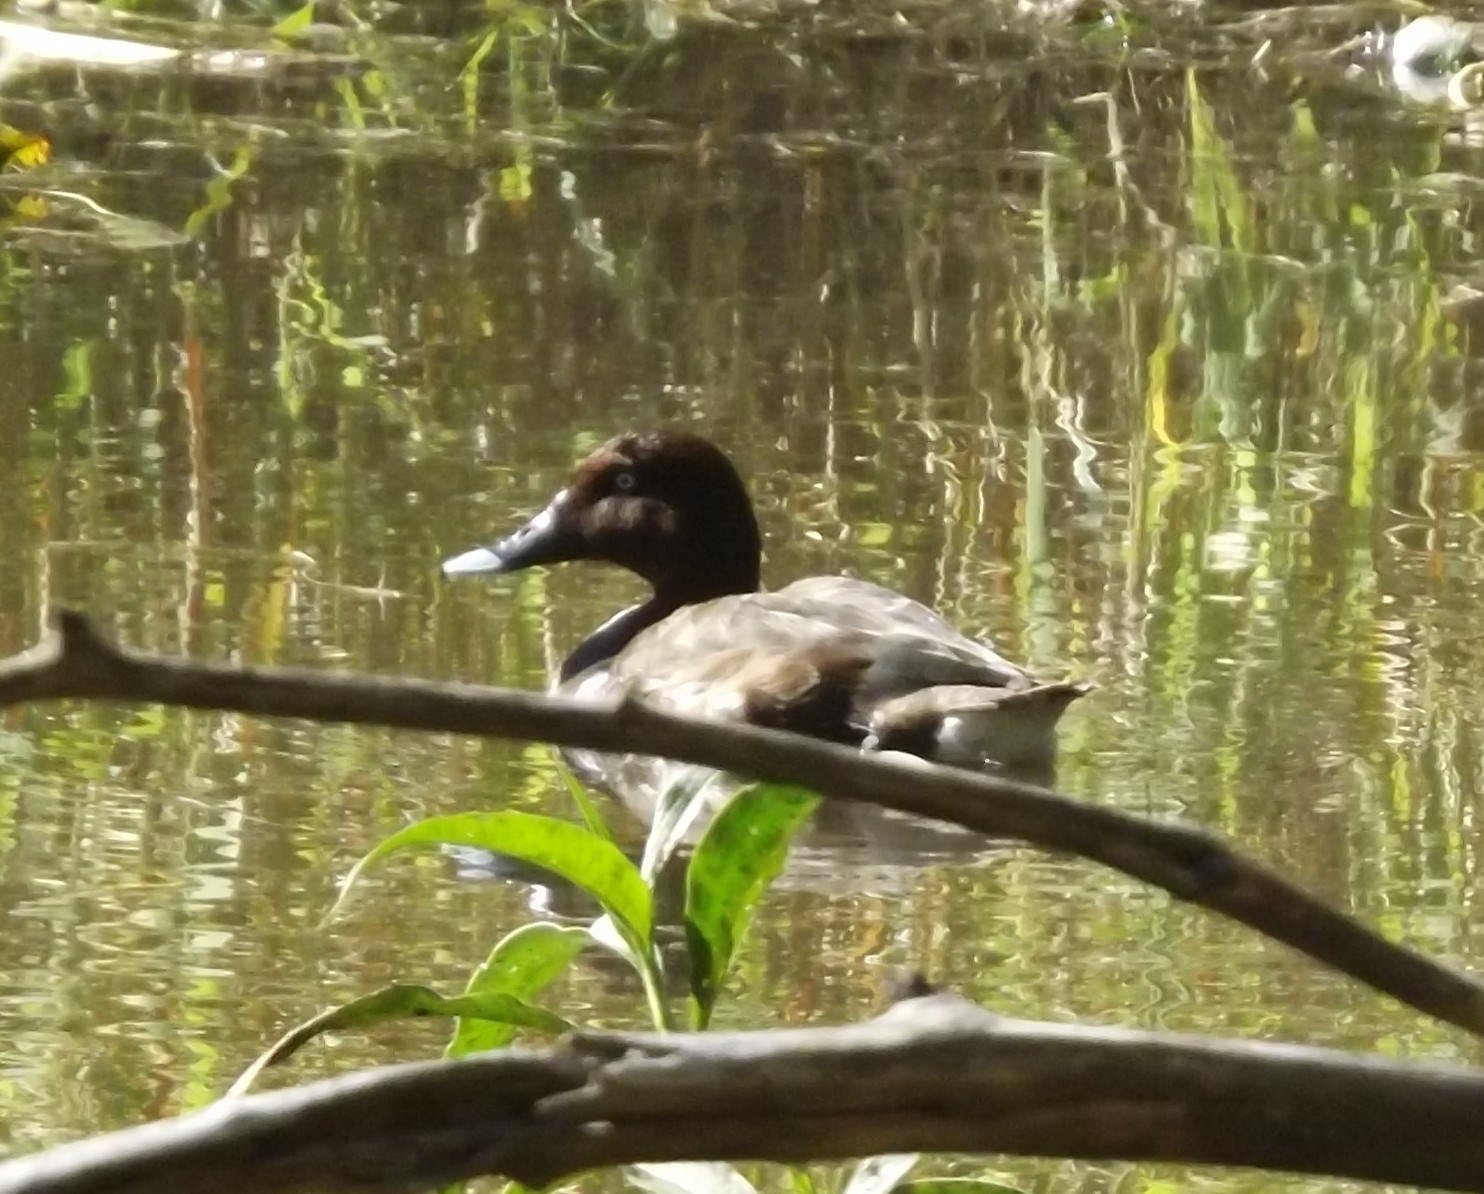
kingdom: Animalia
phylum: Chordata
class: Aves
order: Anseriformes
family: Anatidae
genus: Aythya
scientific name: Aythya australis
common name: Hardhead
